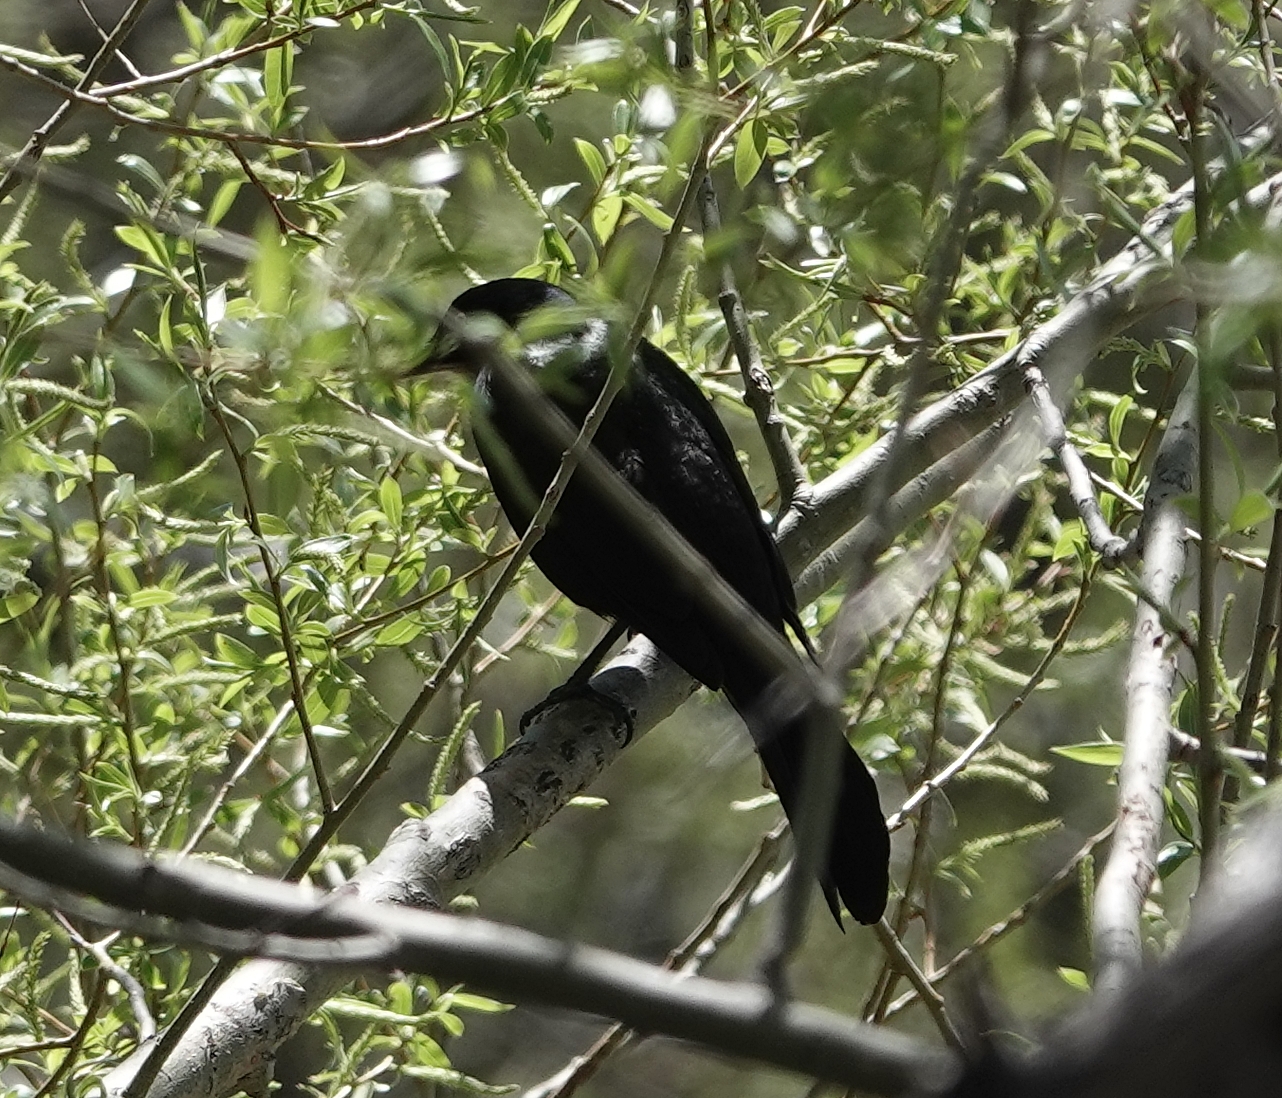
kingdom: Animalia
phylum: Chordata
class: Aves
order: Passeriformes
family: Icteridae
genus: Quiscalus
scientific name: Quiscalus quiscula
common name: Common grackle
